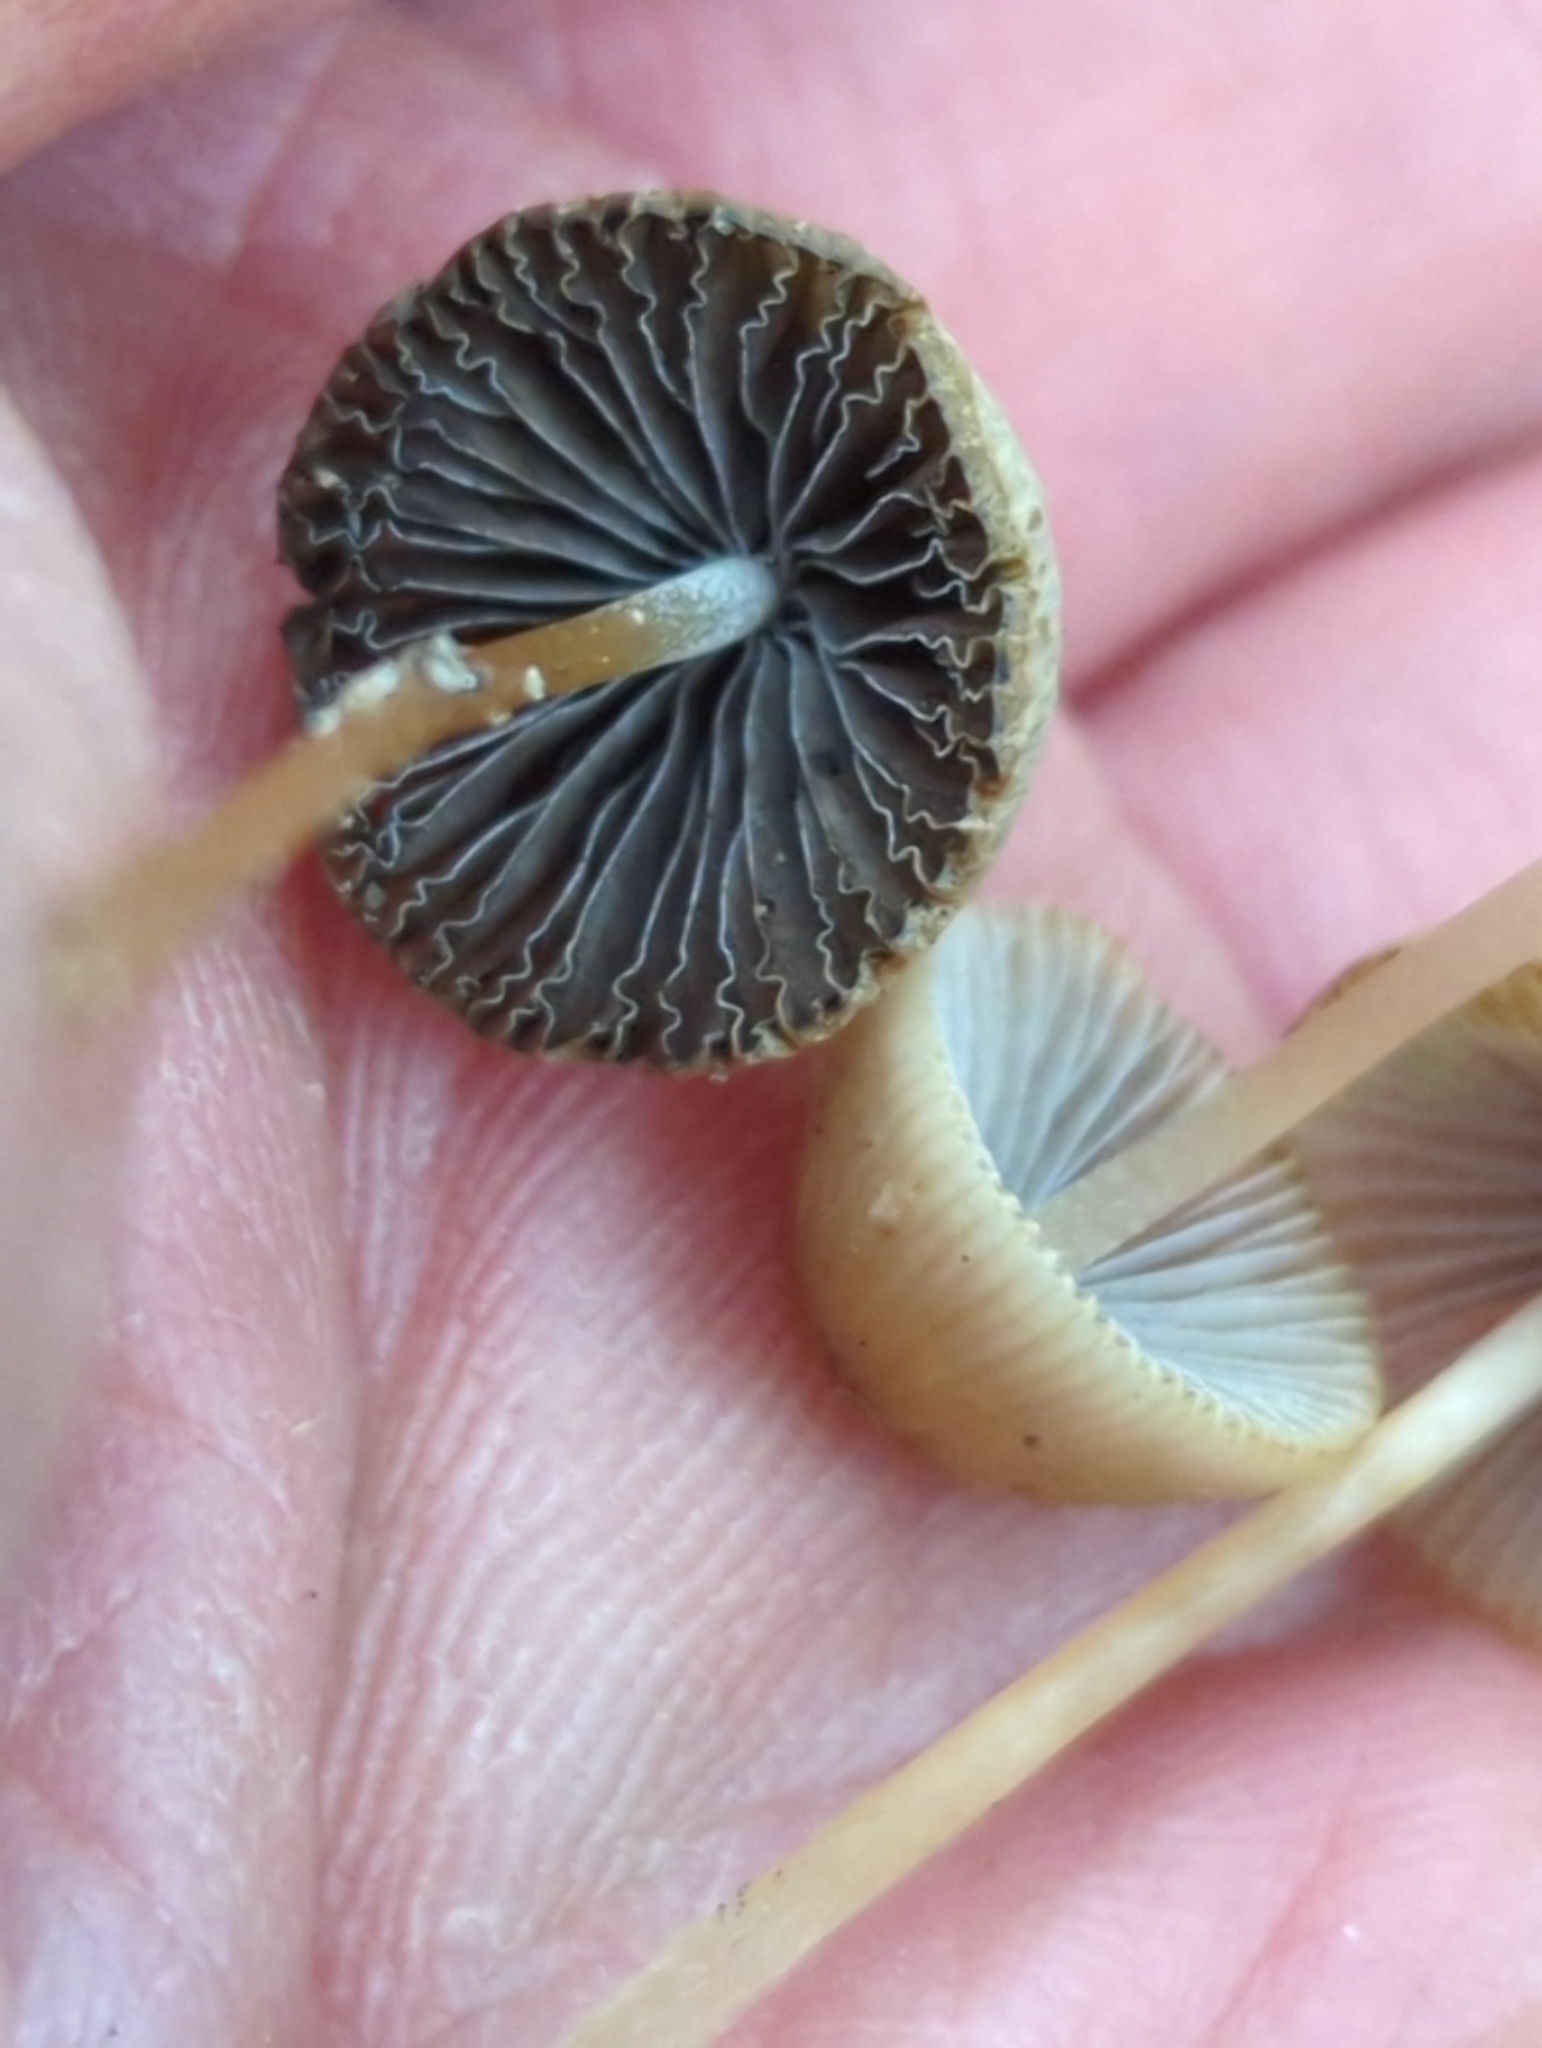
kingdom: Fungi
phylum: Basidiomycota
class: Agaricomycetes
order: Agaricales
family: Psathyrellaceae
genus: Psathyrella
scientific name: Psathyrella amarescens
